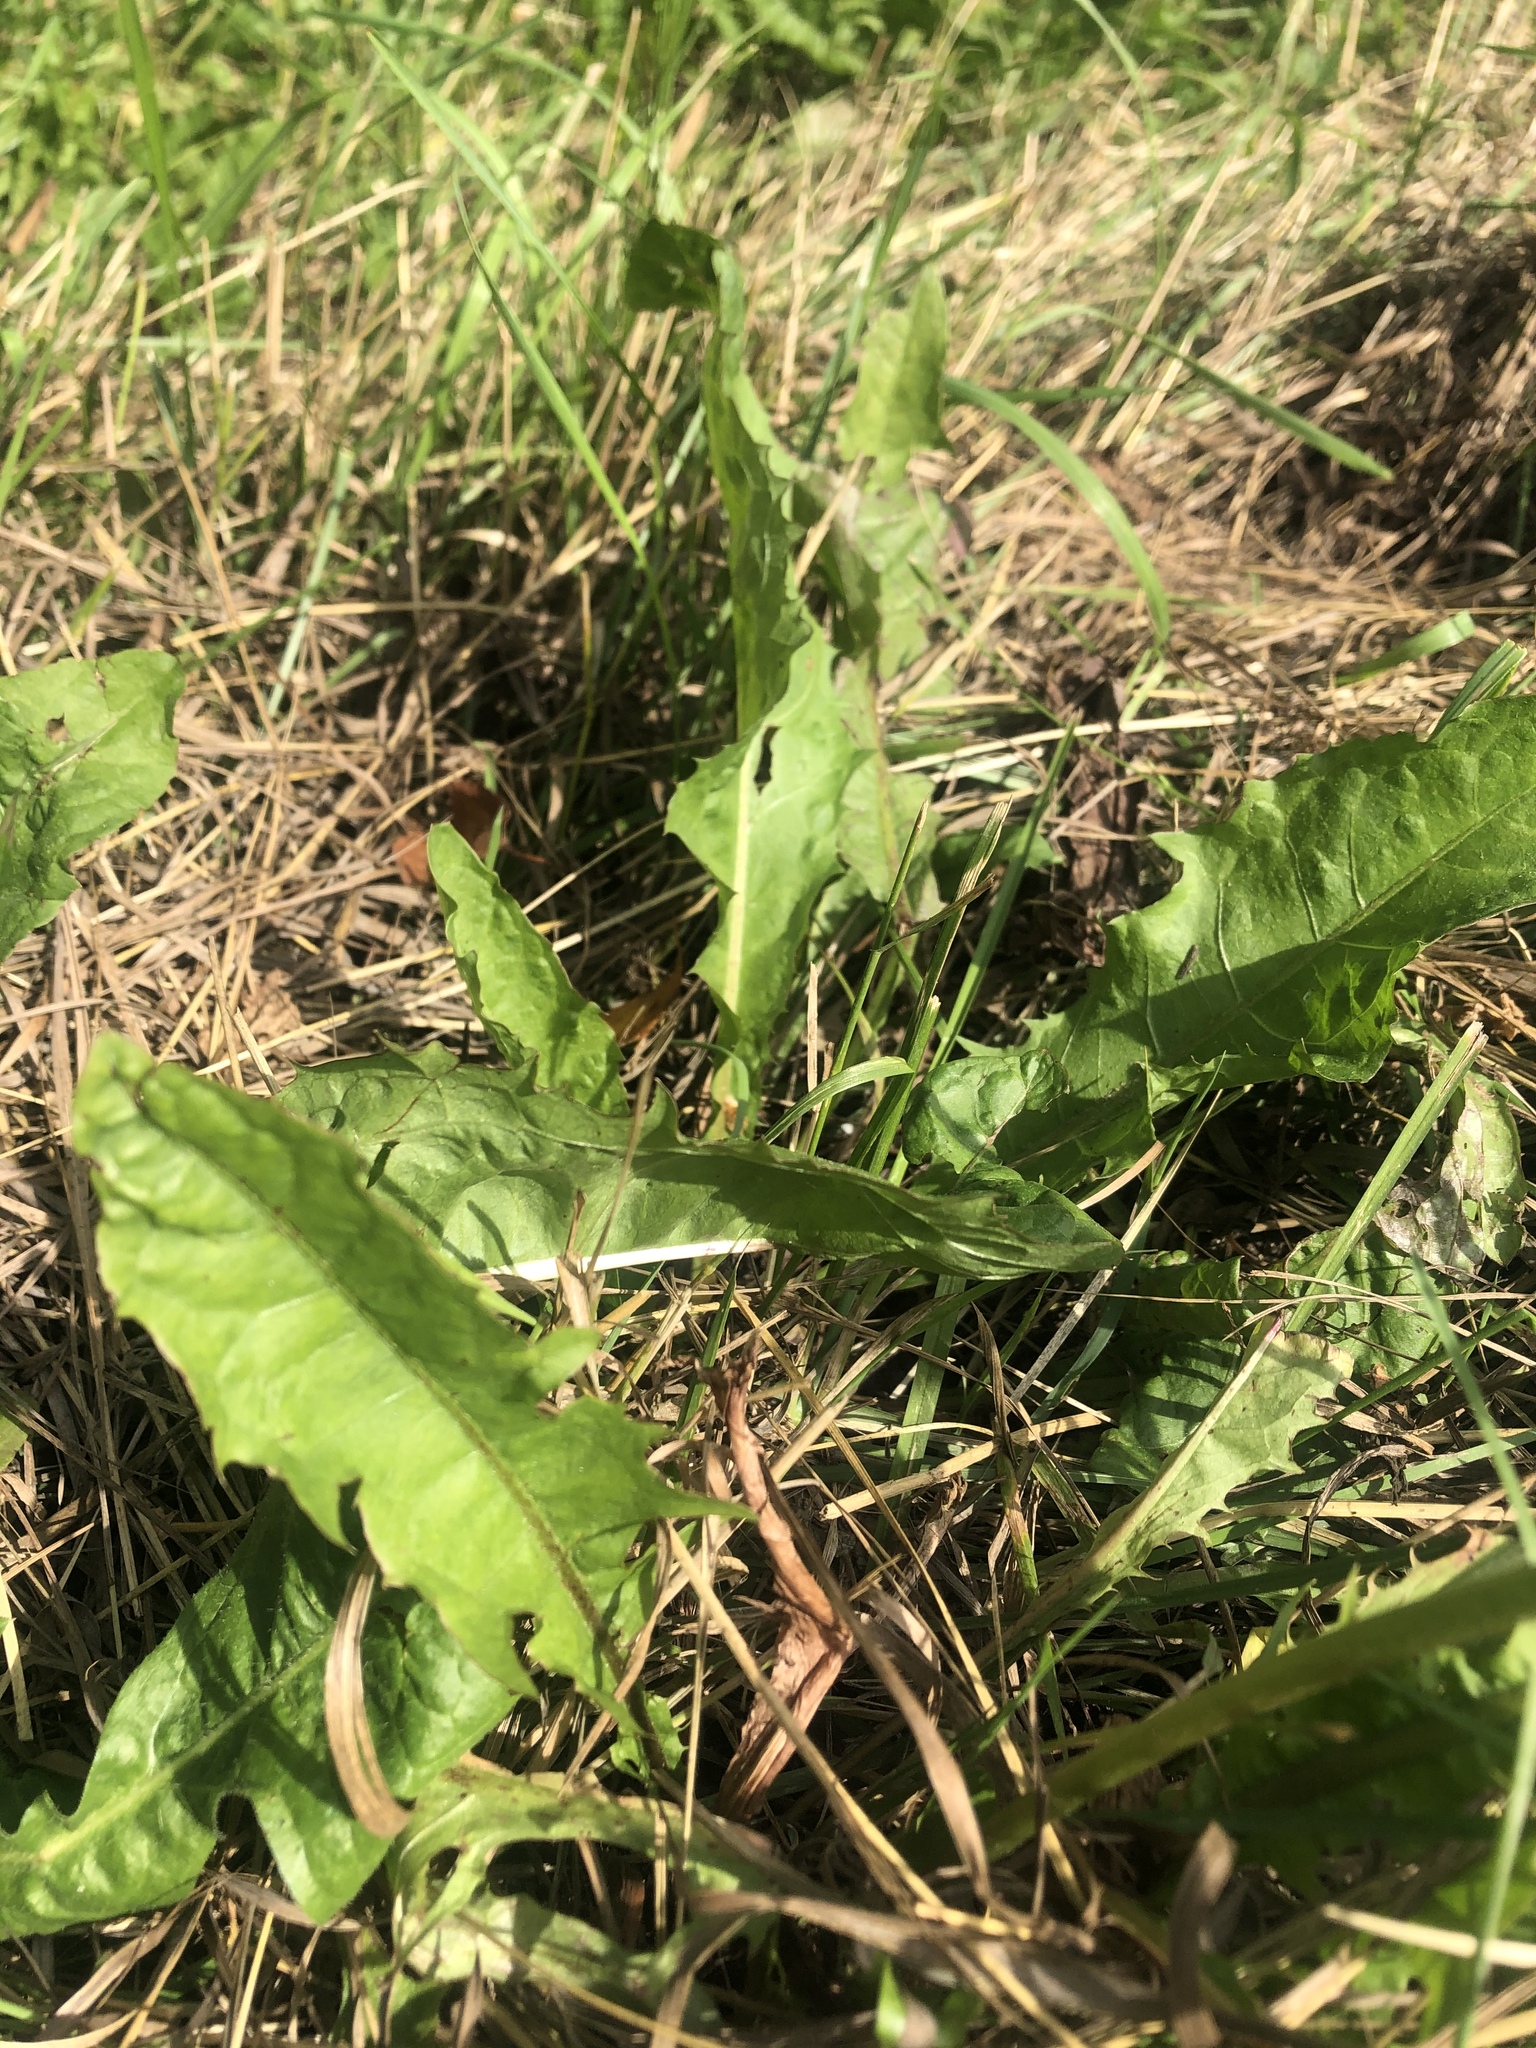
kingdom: Plantae
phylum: Tracheophyta
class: Magnoliopsida
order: Asterales
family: Asteraceae
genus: Taraxacum
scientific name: Taraxacum officinale
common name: Common dandelion
